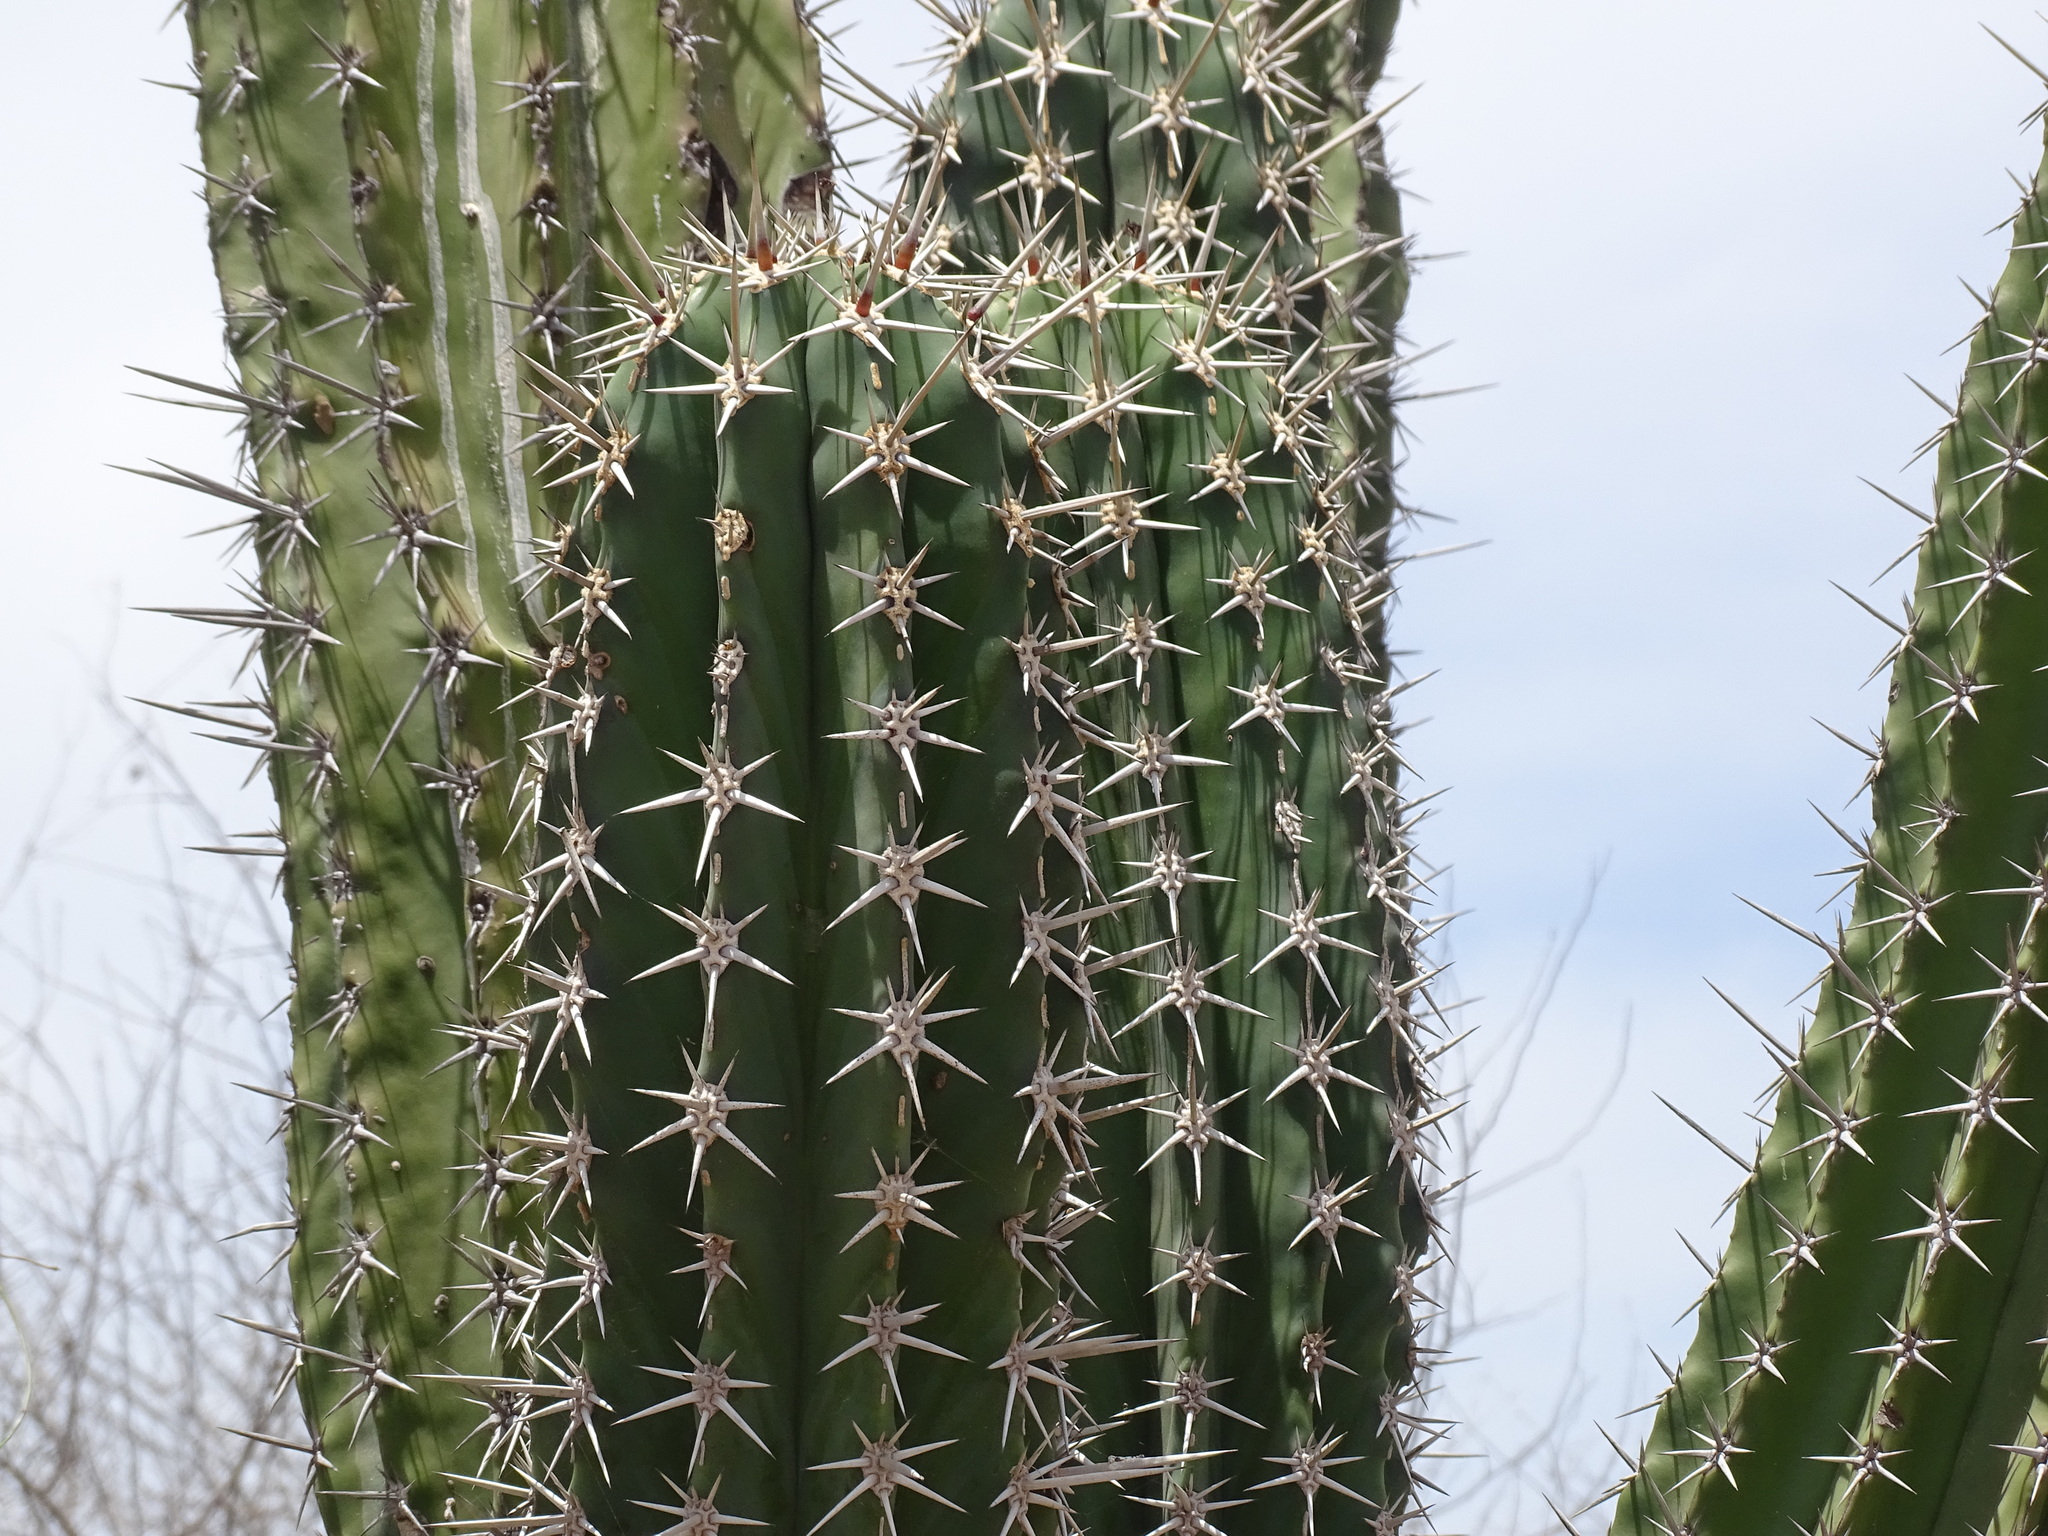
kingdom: Plantae
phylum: Tracheophyta
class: Magnoliopsida
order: Caryophyllales
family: Cactaceae
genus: Pachycereus
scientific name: Pachycereus pecten-aboriginum
